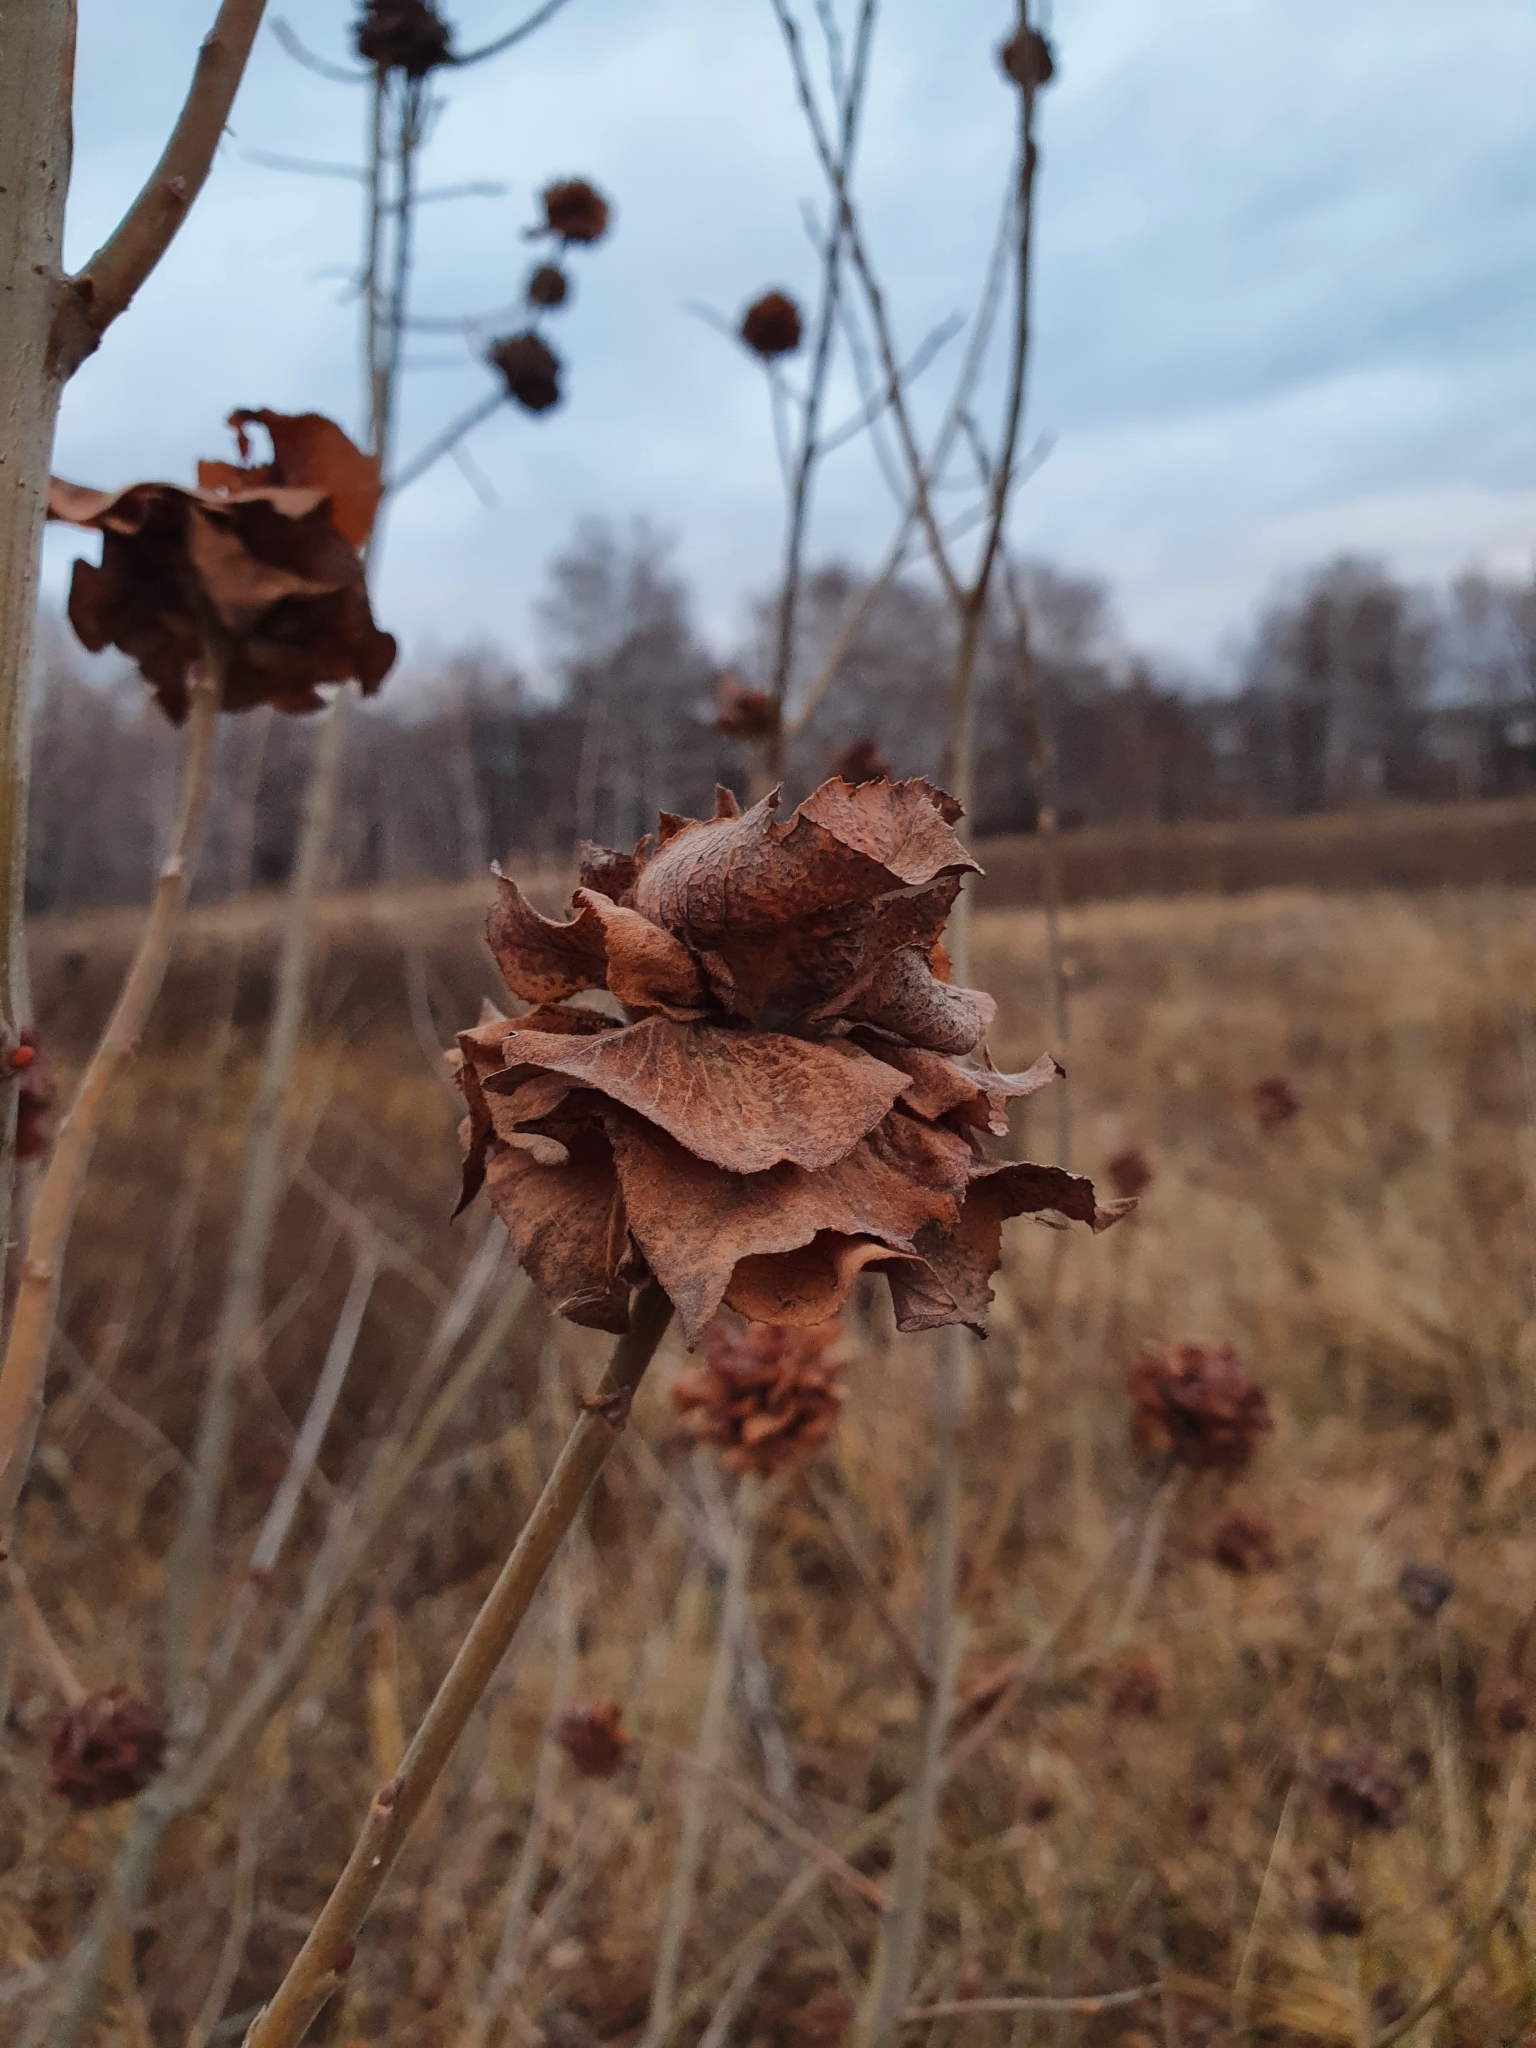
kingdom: Animalia
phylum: Arthropoda
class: Insecta
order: Diptera
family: Cecidomyiidae
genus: Rabdophaga
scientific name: Rabdophaga rosaria
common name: Willow rose gall midge
